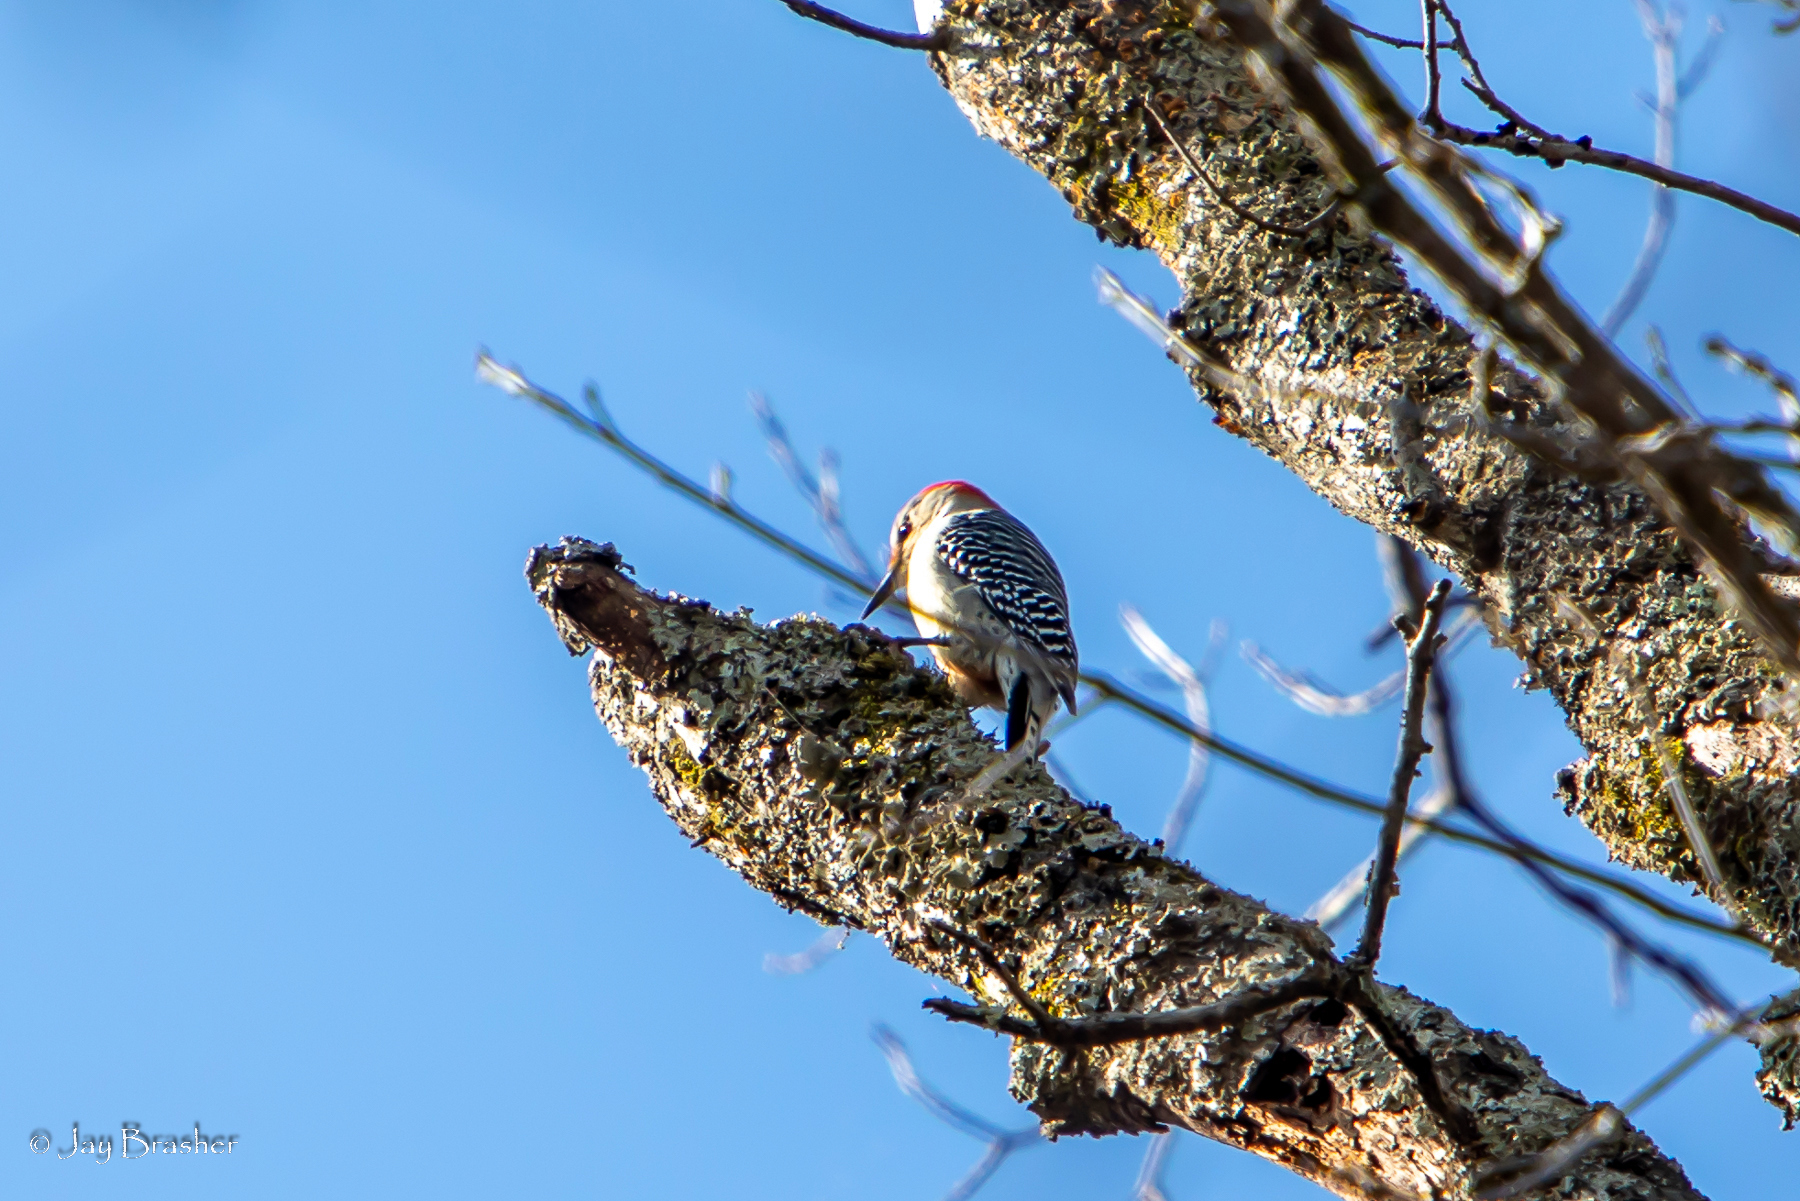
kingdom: Animalia
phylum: Chordata
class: Aves
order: Piciformes
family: Picidae
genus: Melanerpes
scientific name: Melanerpes carolinus
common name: Red-bellied woodpecker
